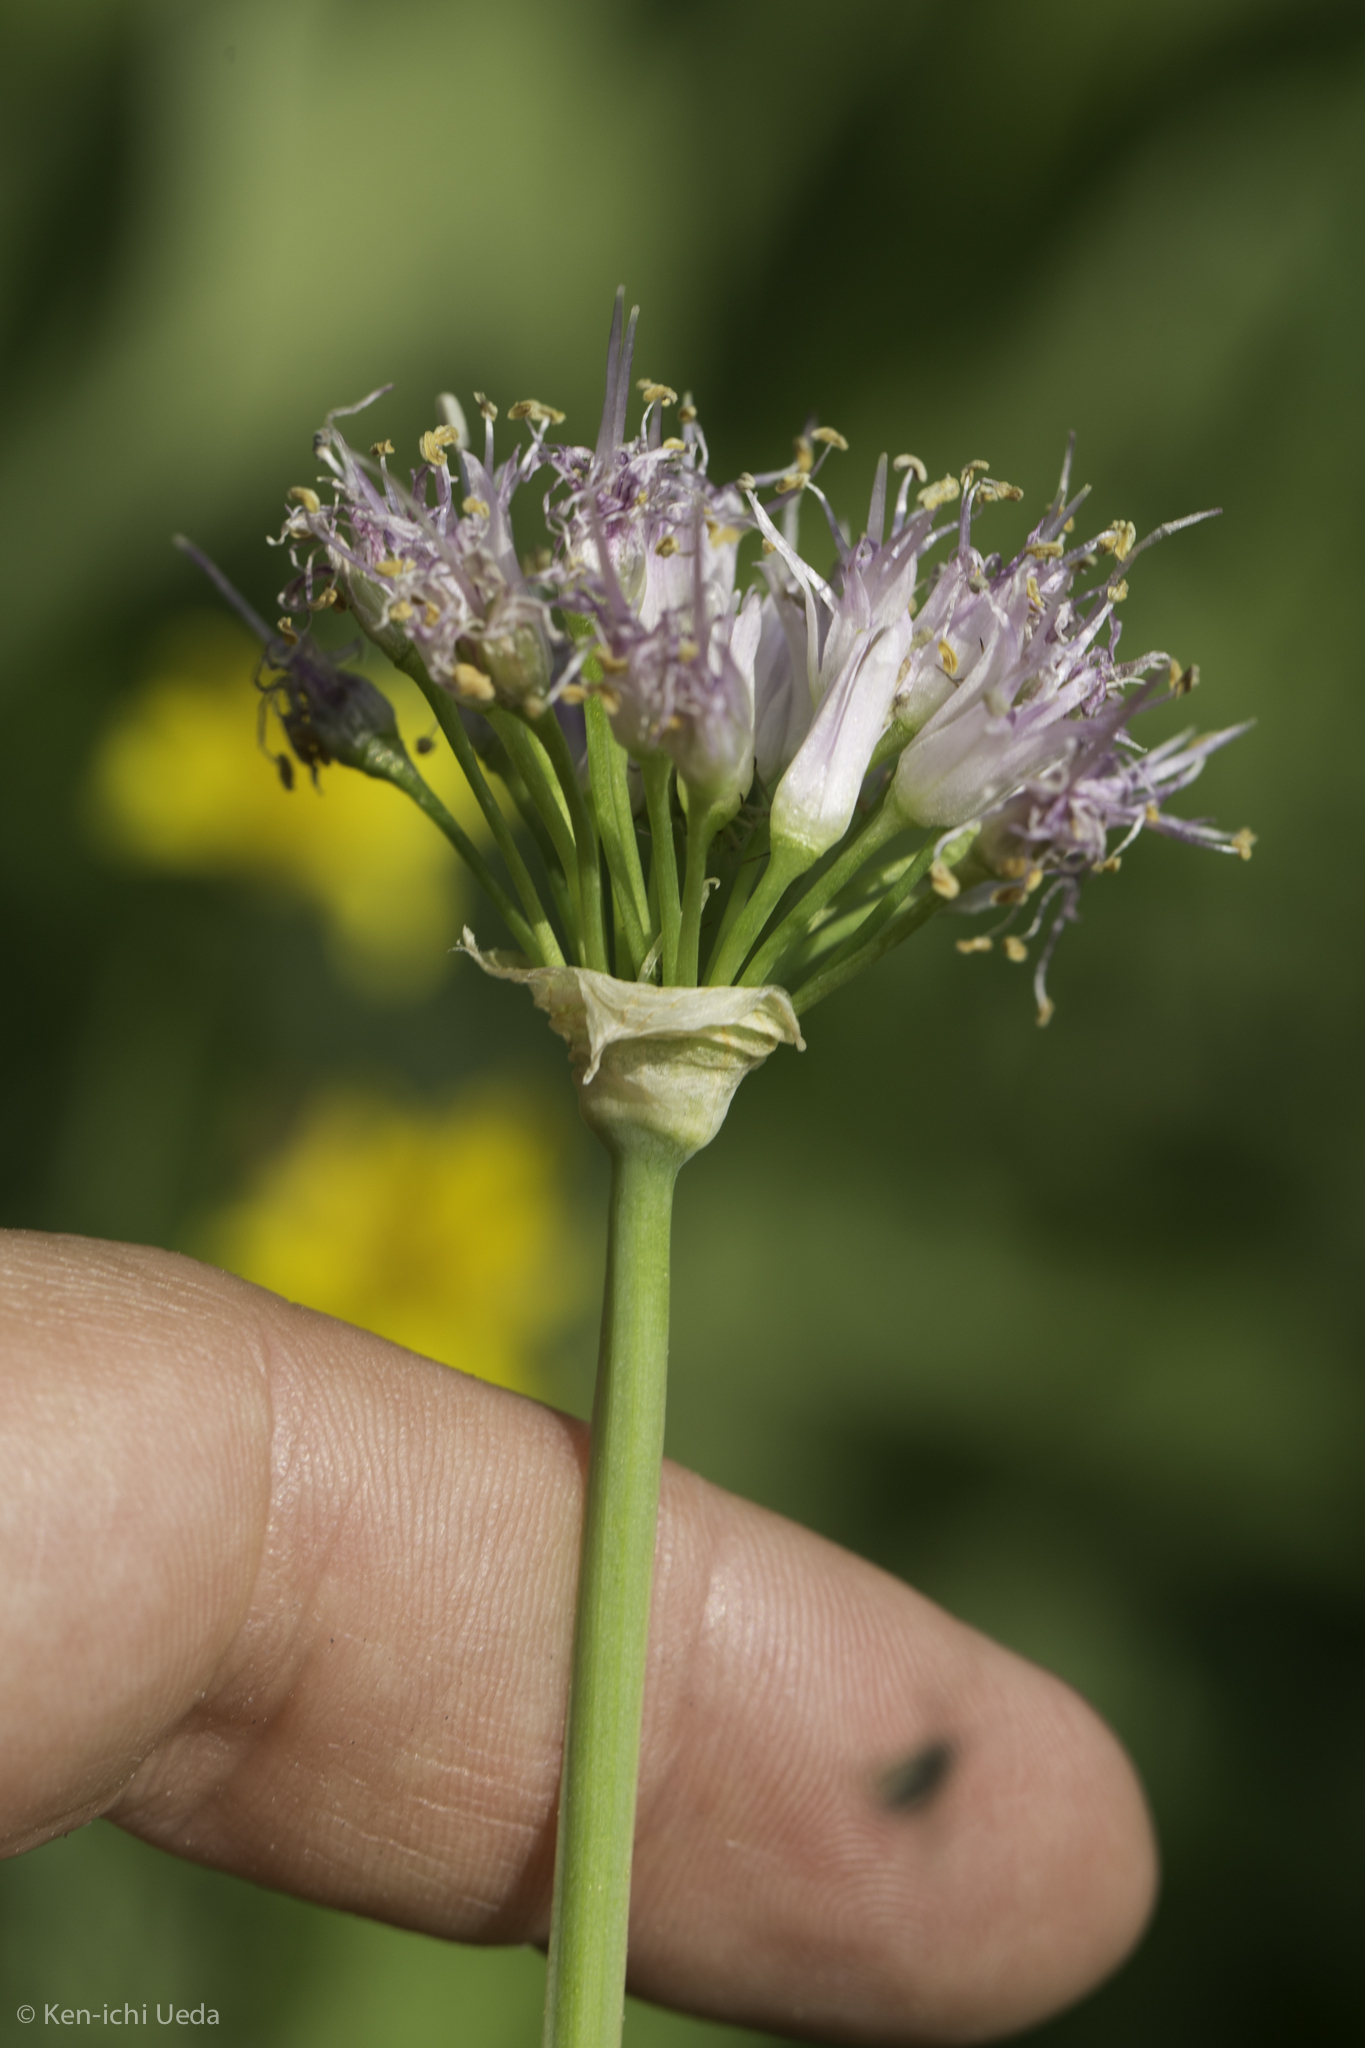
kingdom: Plantae
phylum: Tracheophyta
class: Liliopsida
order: Asparagales
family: Amaryllidaceae
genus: Allium
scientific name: Allium validum
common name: Pacific mountain onion
